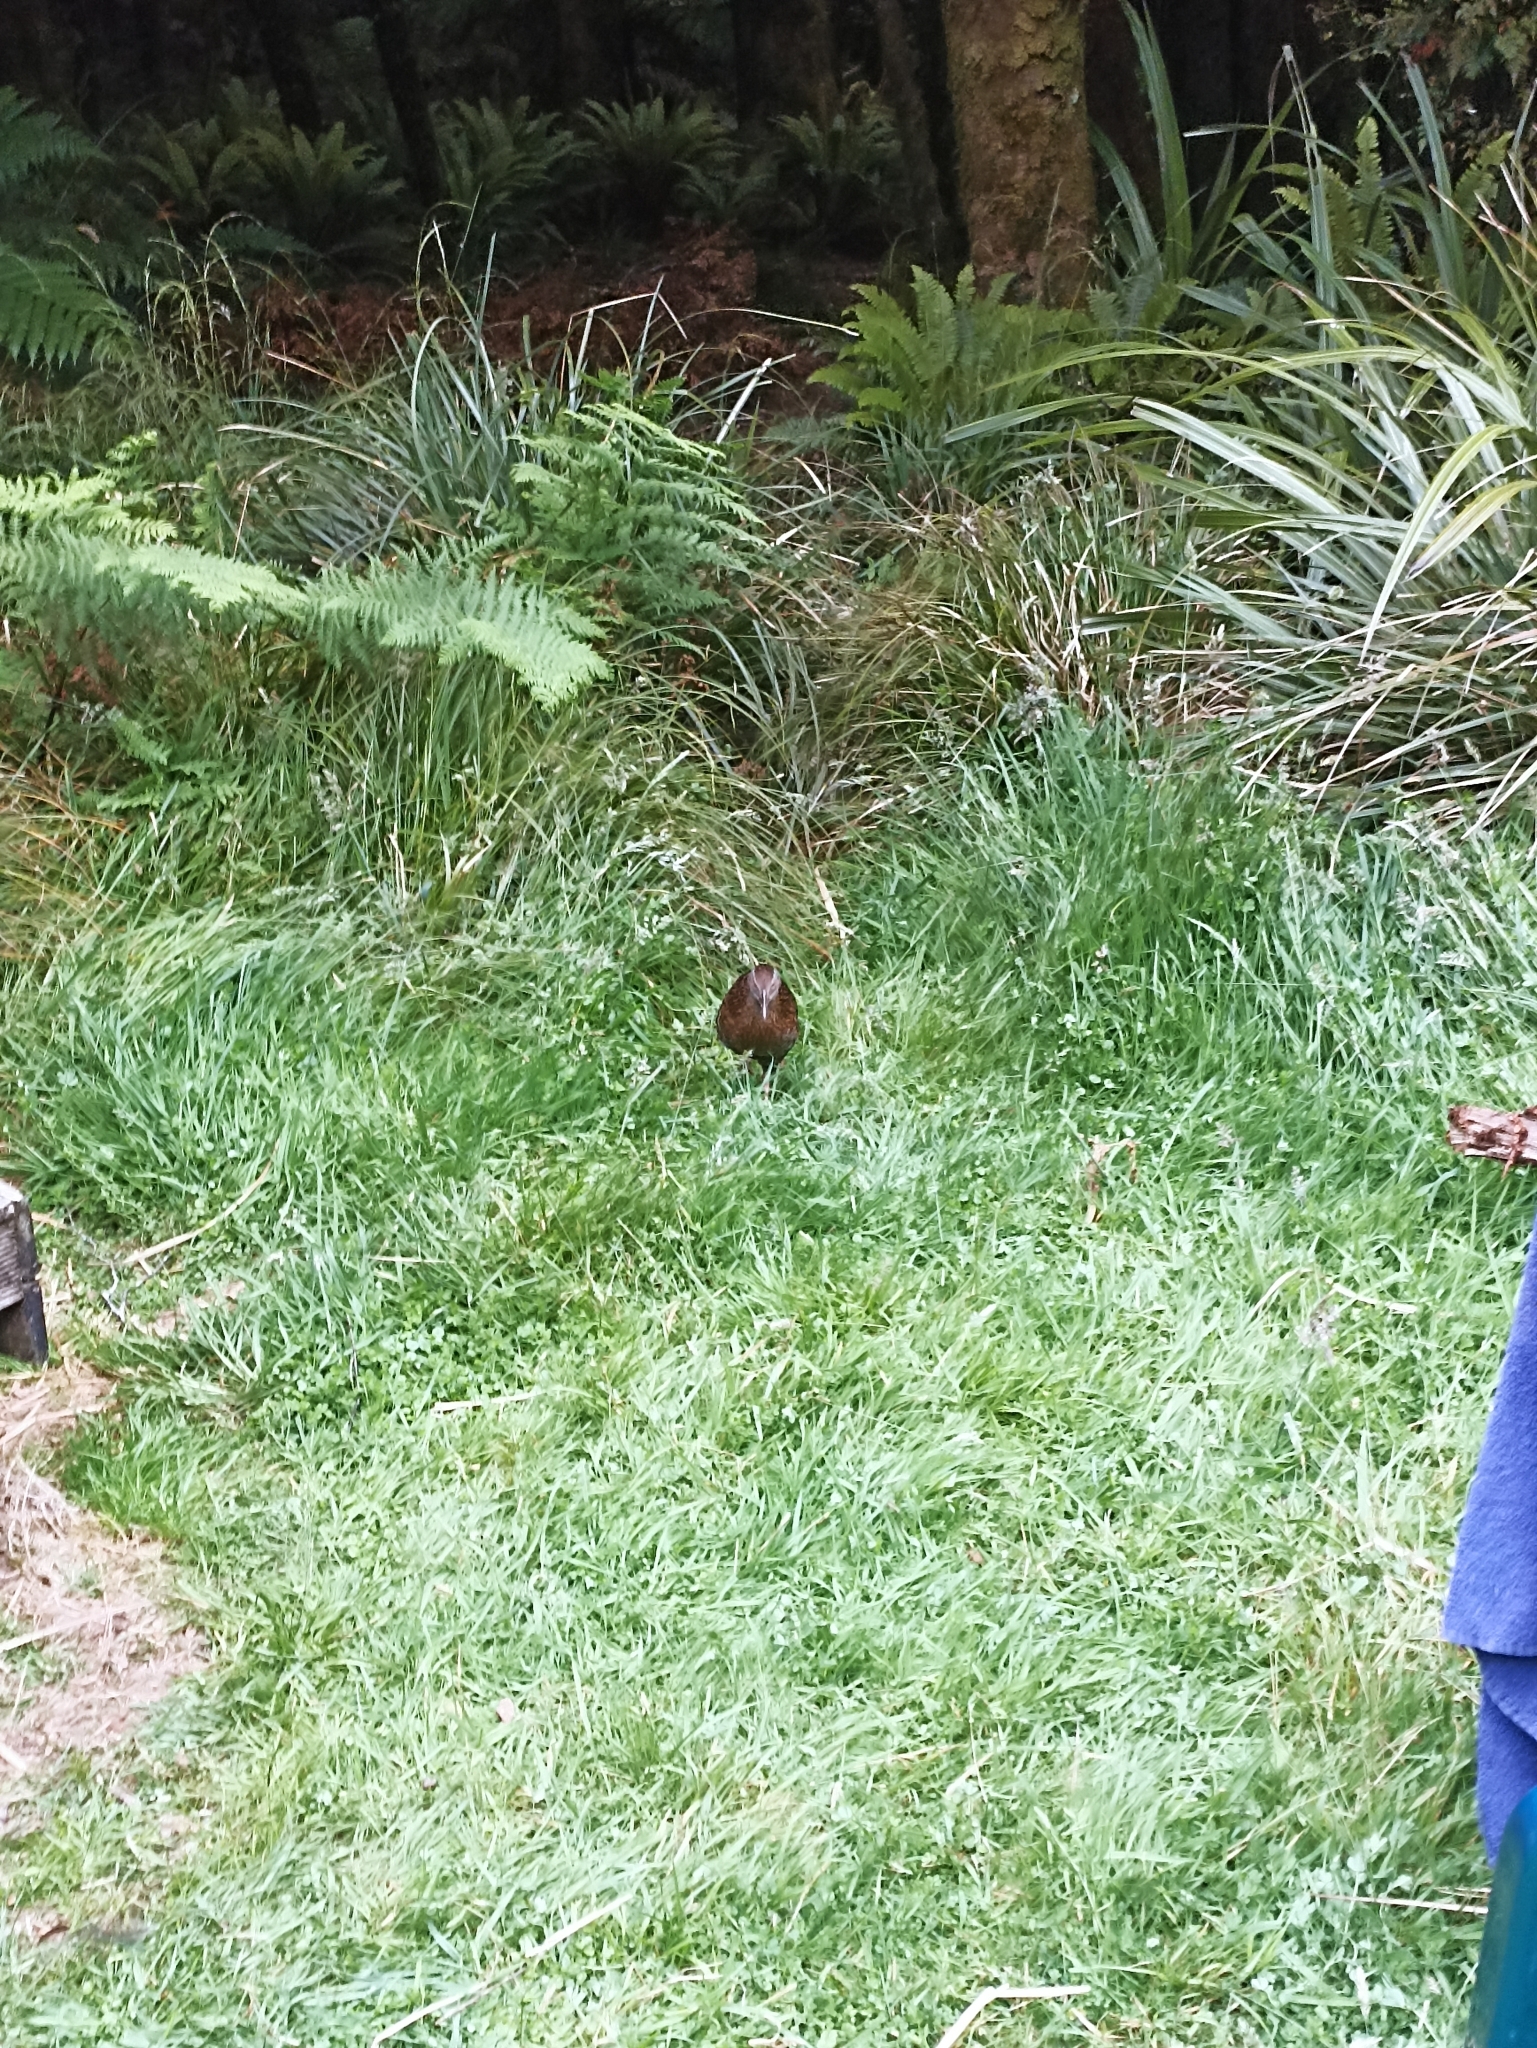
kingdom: Animalia
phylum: Chordata
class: Aves
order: Gruiformes
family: Rallidae
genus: Gallirallus
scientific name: Gallirallus australis
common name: Weka
